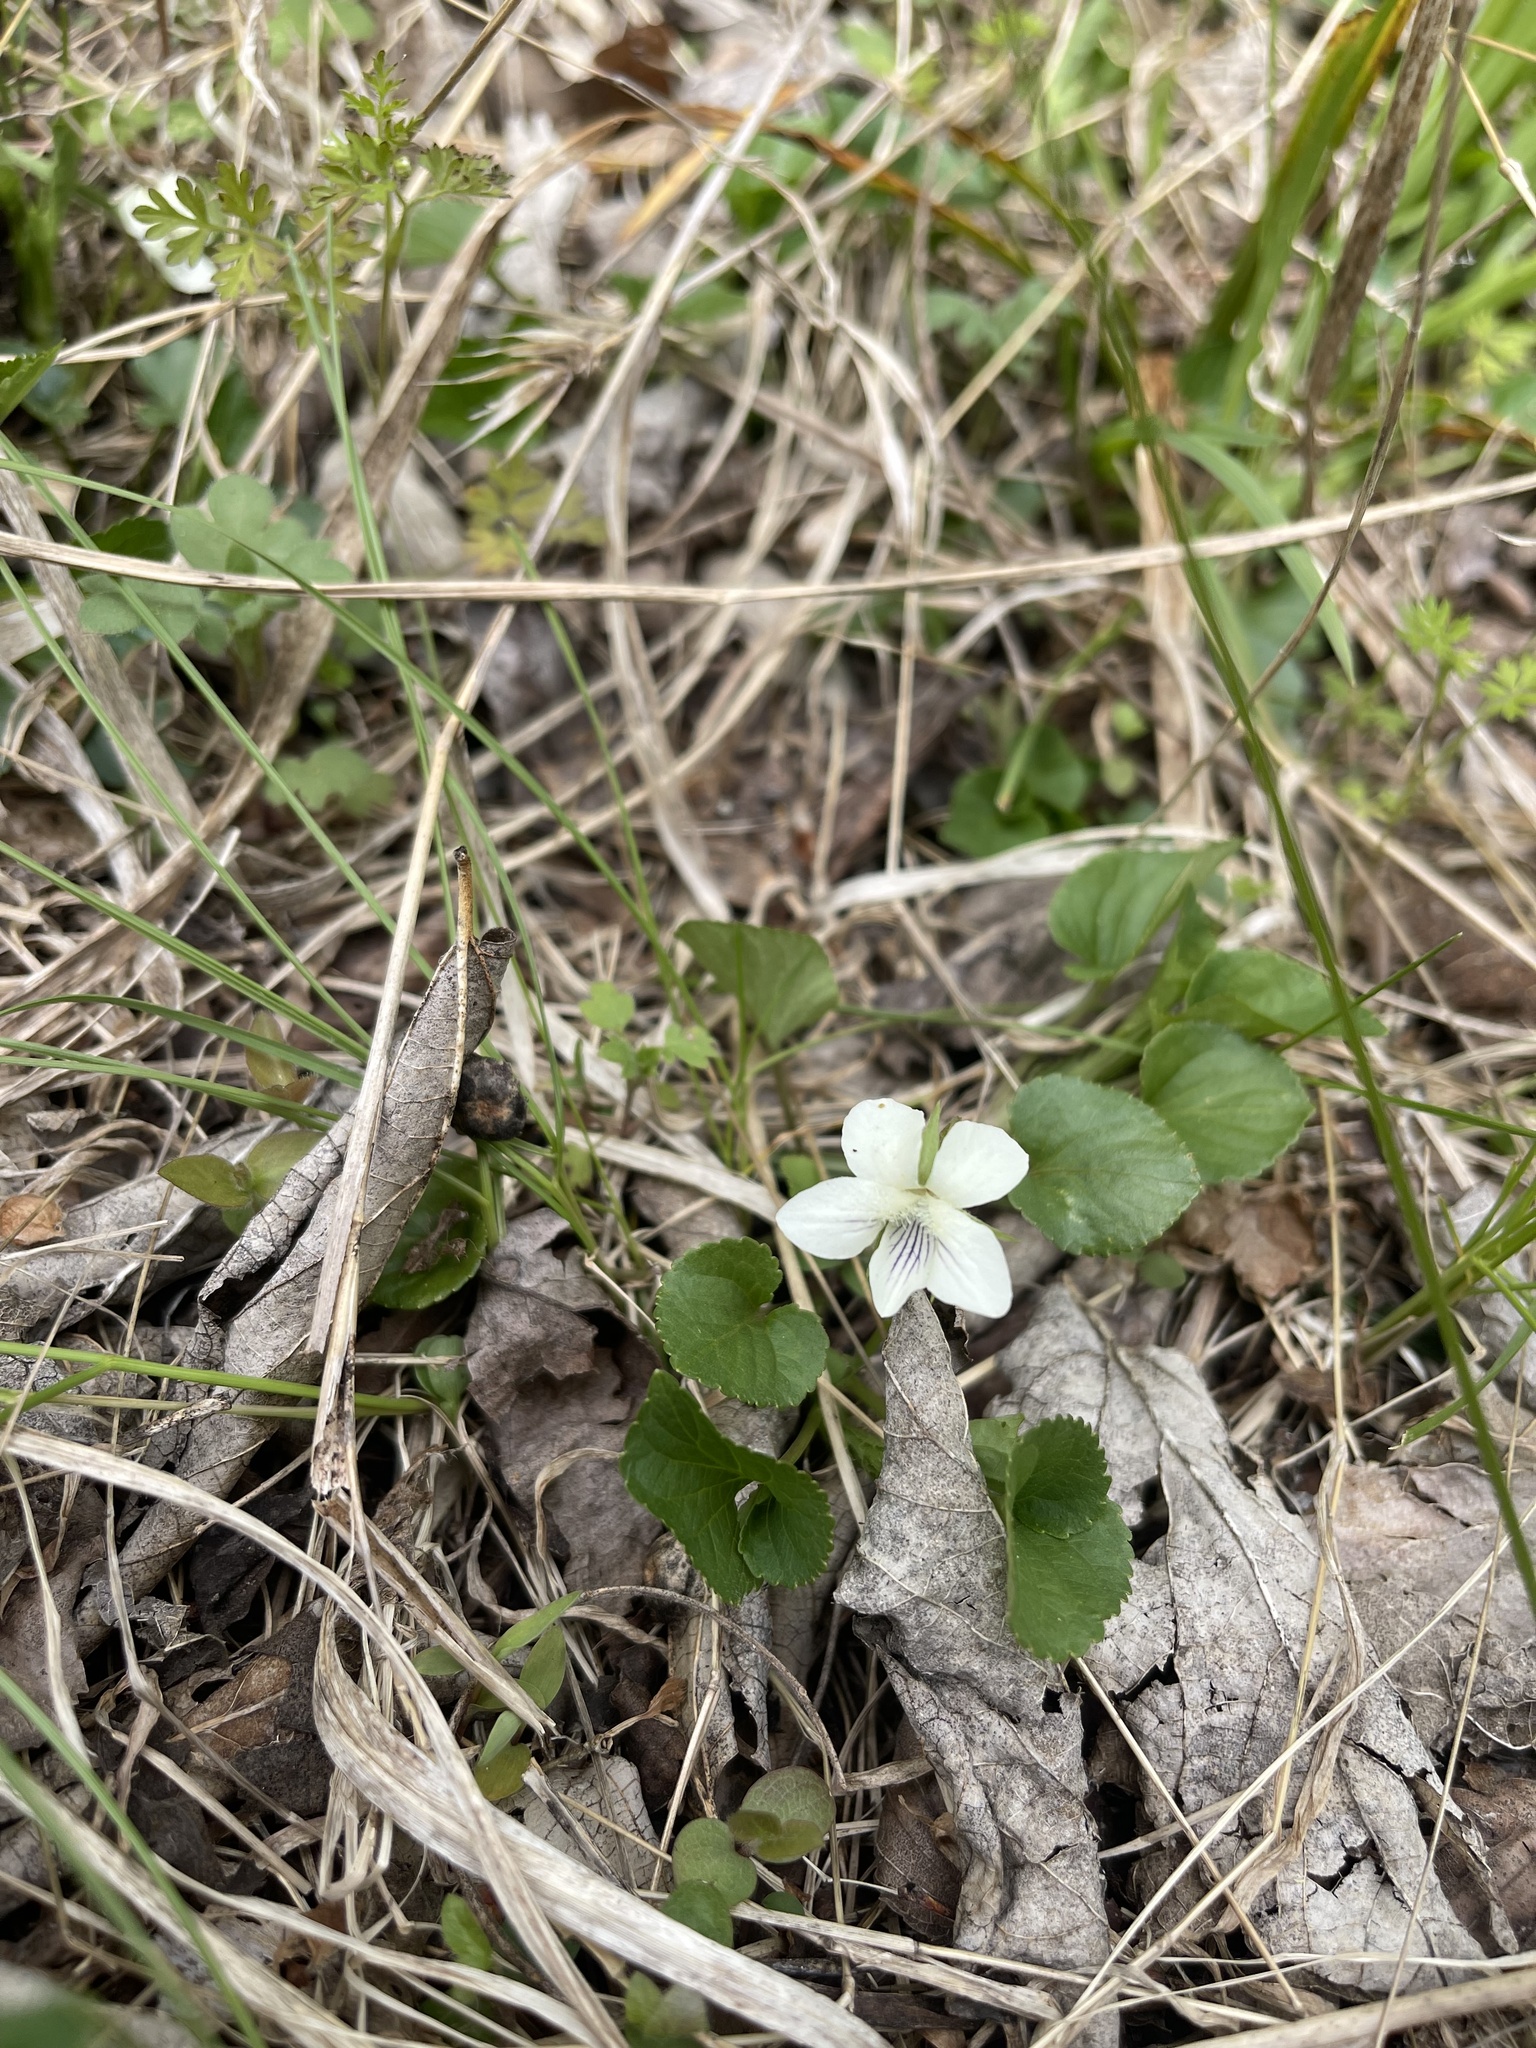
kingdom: Plantae
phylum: Tracheophyta
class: Magnoliopsida
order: Malpighiales
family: Violaceae
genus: Viola
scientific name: Viola striata
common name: Cream violet
